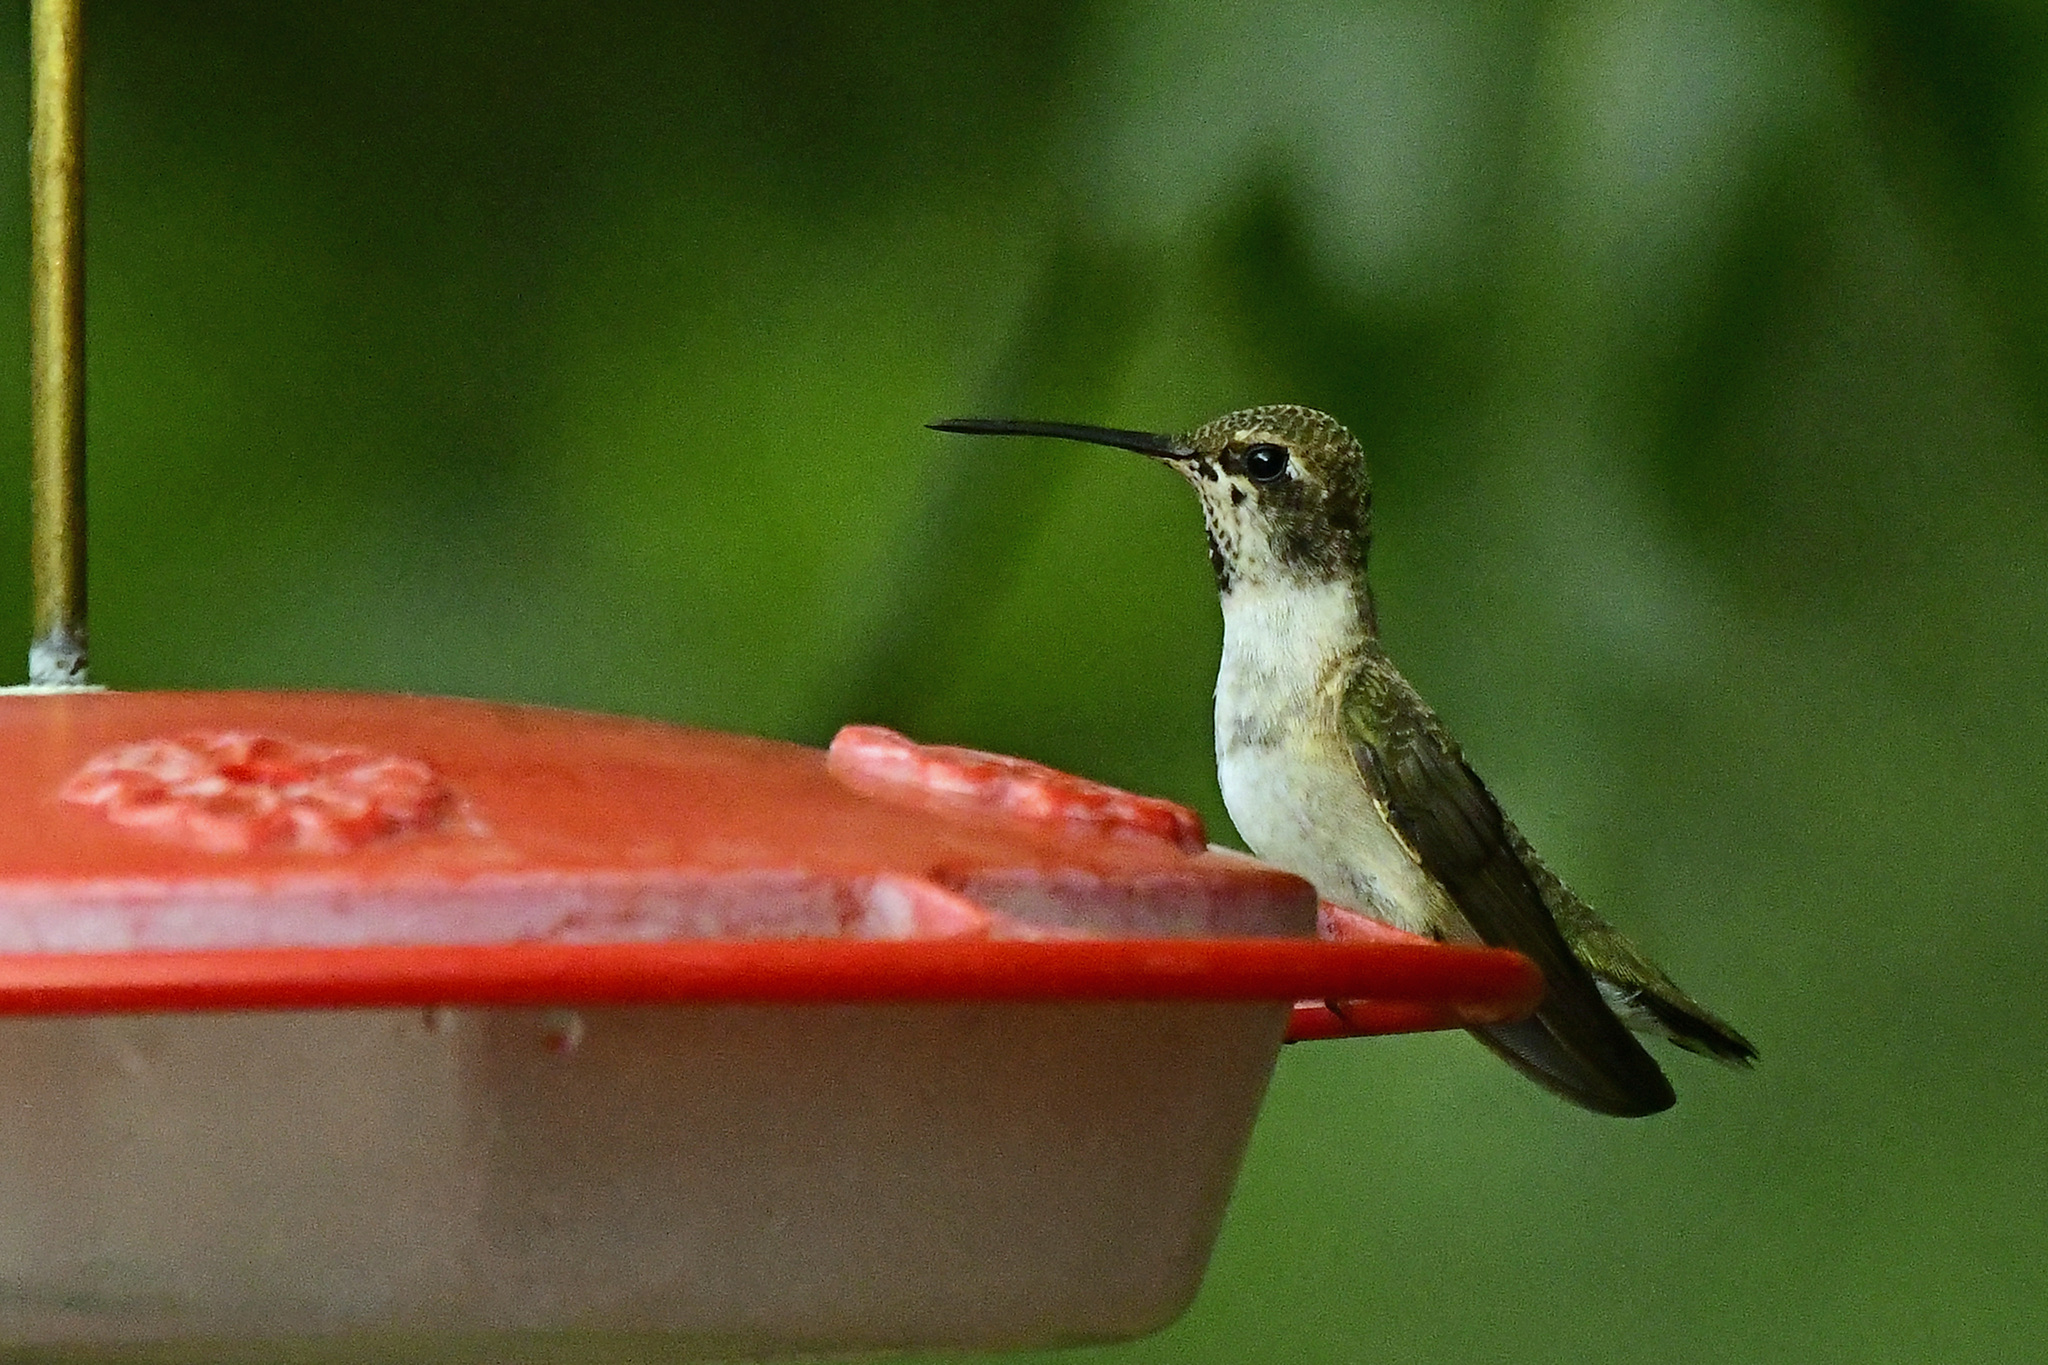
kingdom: Animalia
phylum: Chordata
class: Aves
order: Apodiformes
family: Trochilidae
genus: Archilochus
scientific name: Archilochus alexandri
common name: Black-chinned hummingbird
